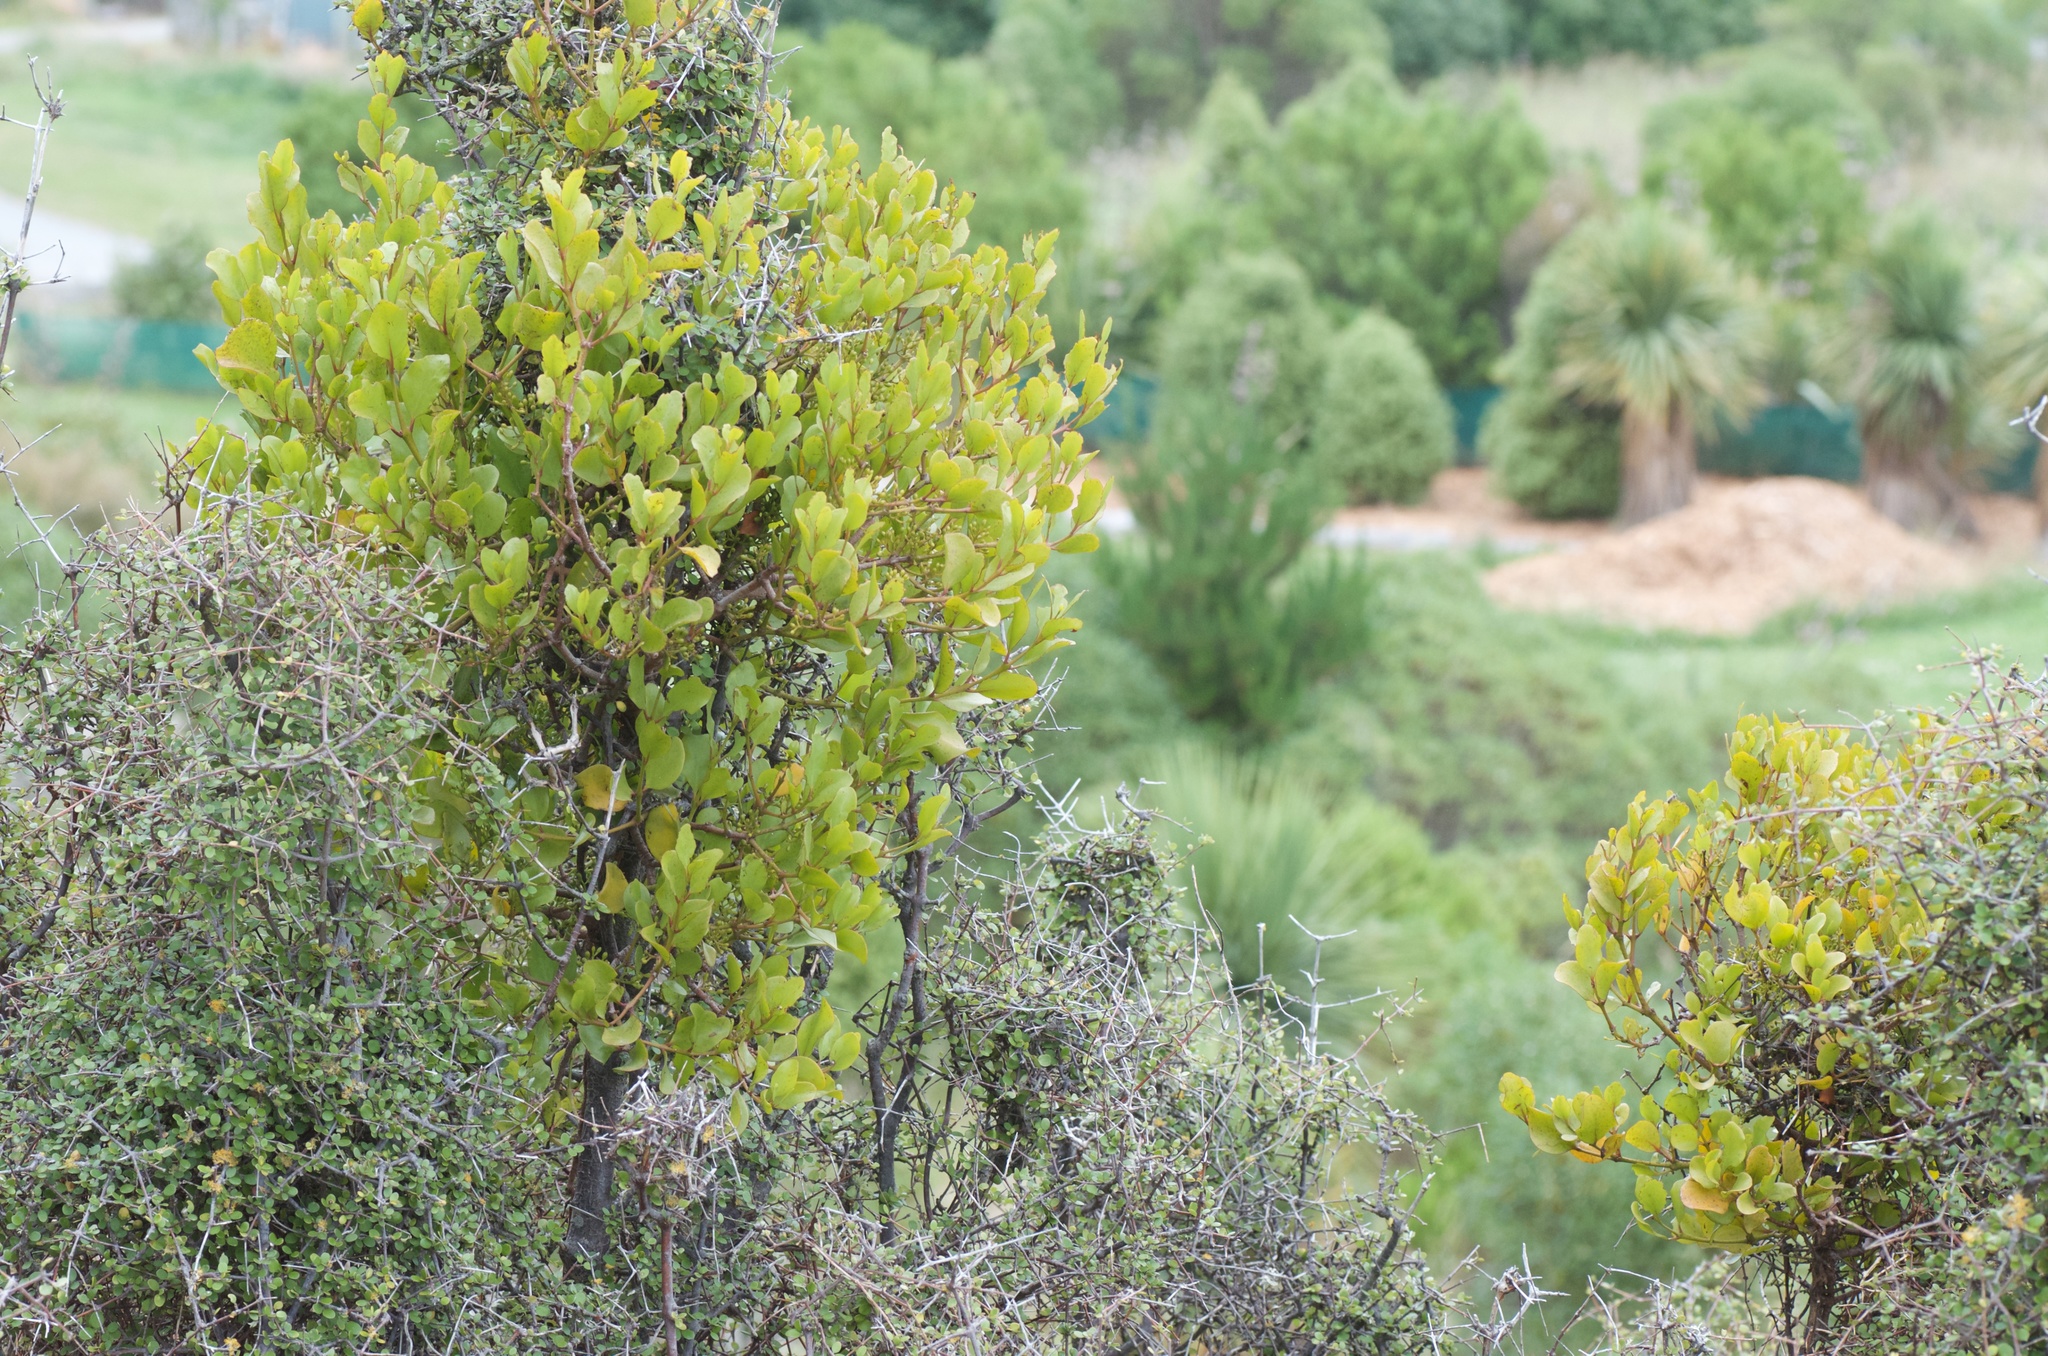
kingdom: Plantae
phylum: Tracheophyta
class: Magnoliopsida
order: Santalales
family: Loranthaceae
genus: Ileostylus
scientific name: Ileostylus micranthus
